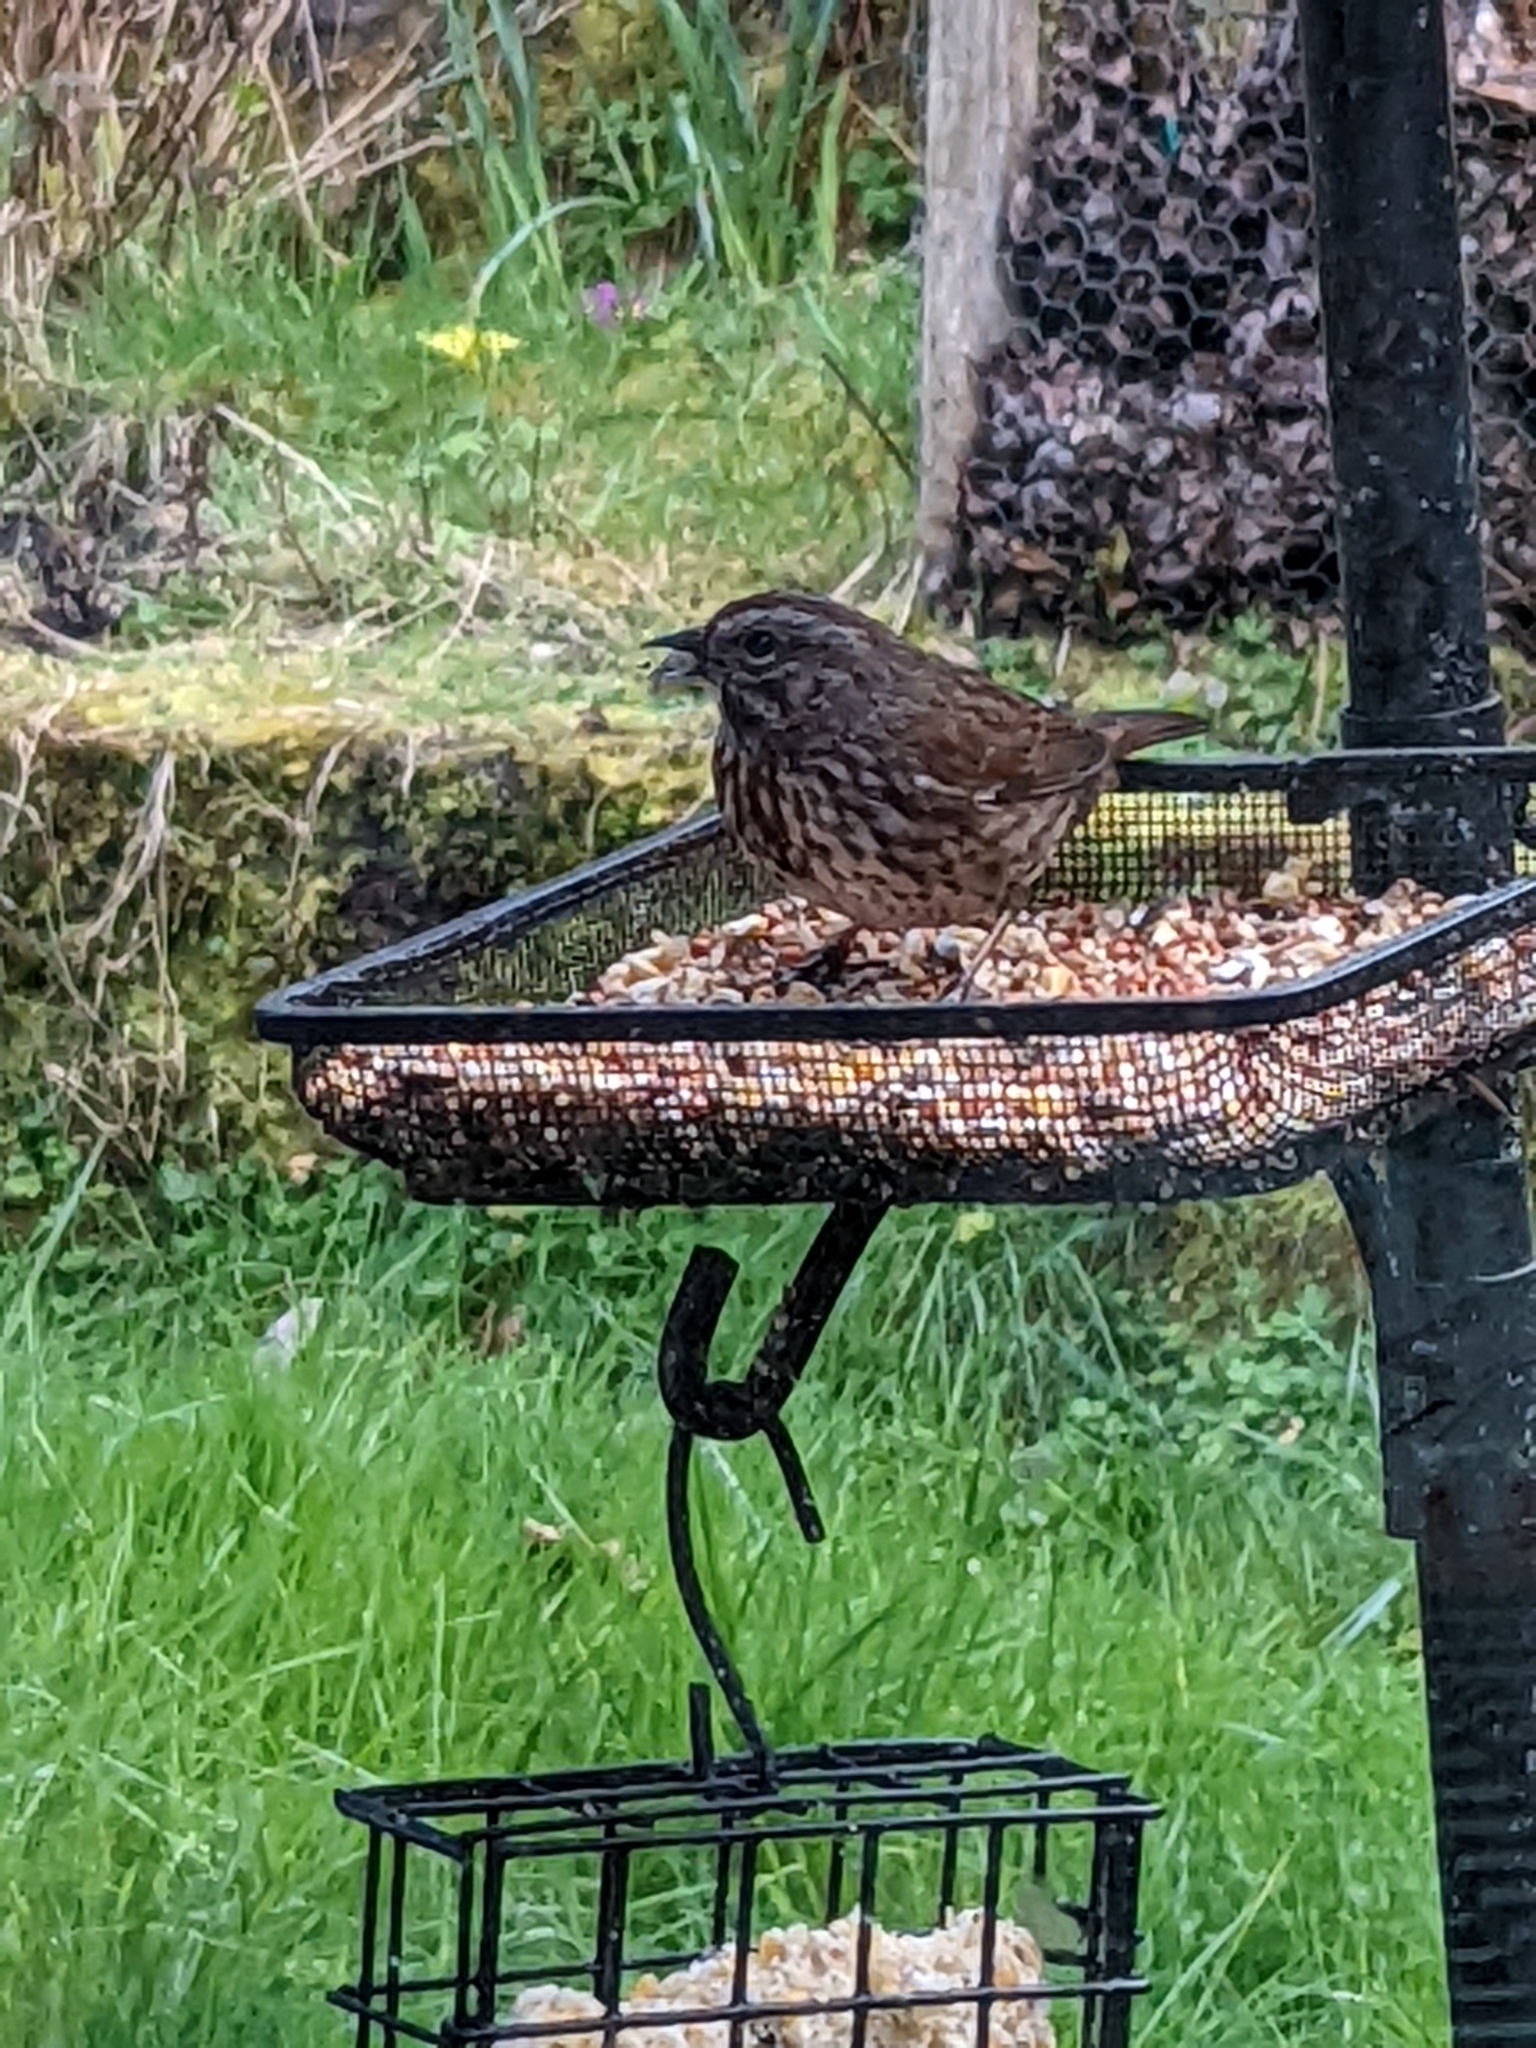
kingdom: Animalia
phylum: Chordata
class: Aves
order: Passeriformes
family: Passerellidae
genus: Melospiza
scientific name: Melospiza melodia
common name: Song sparrow
